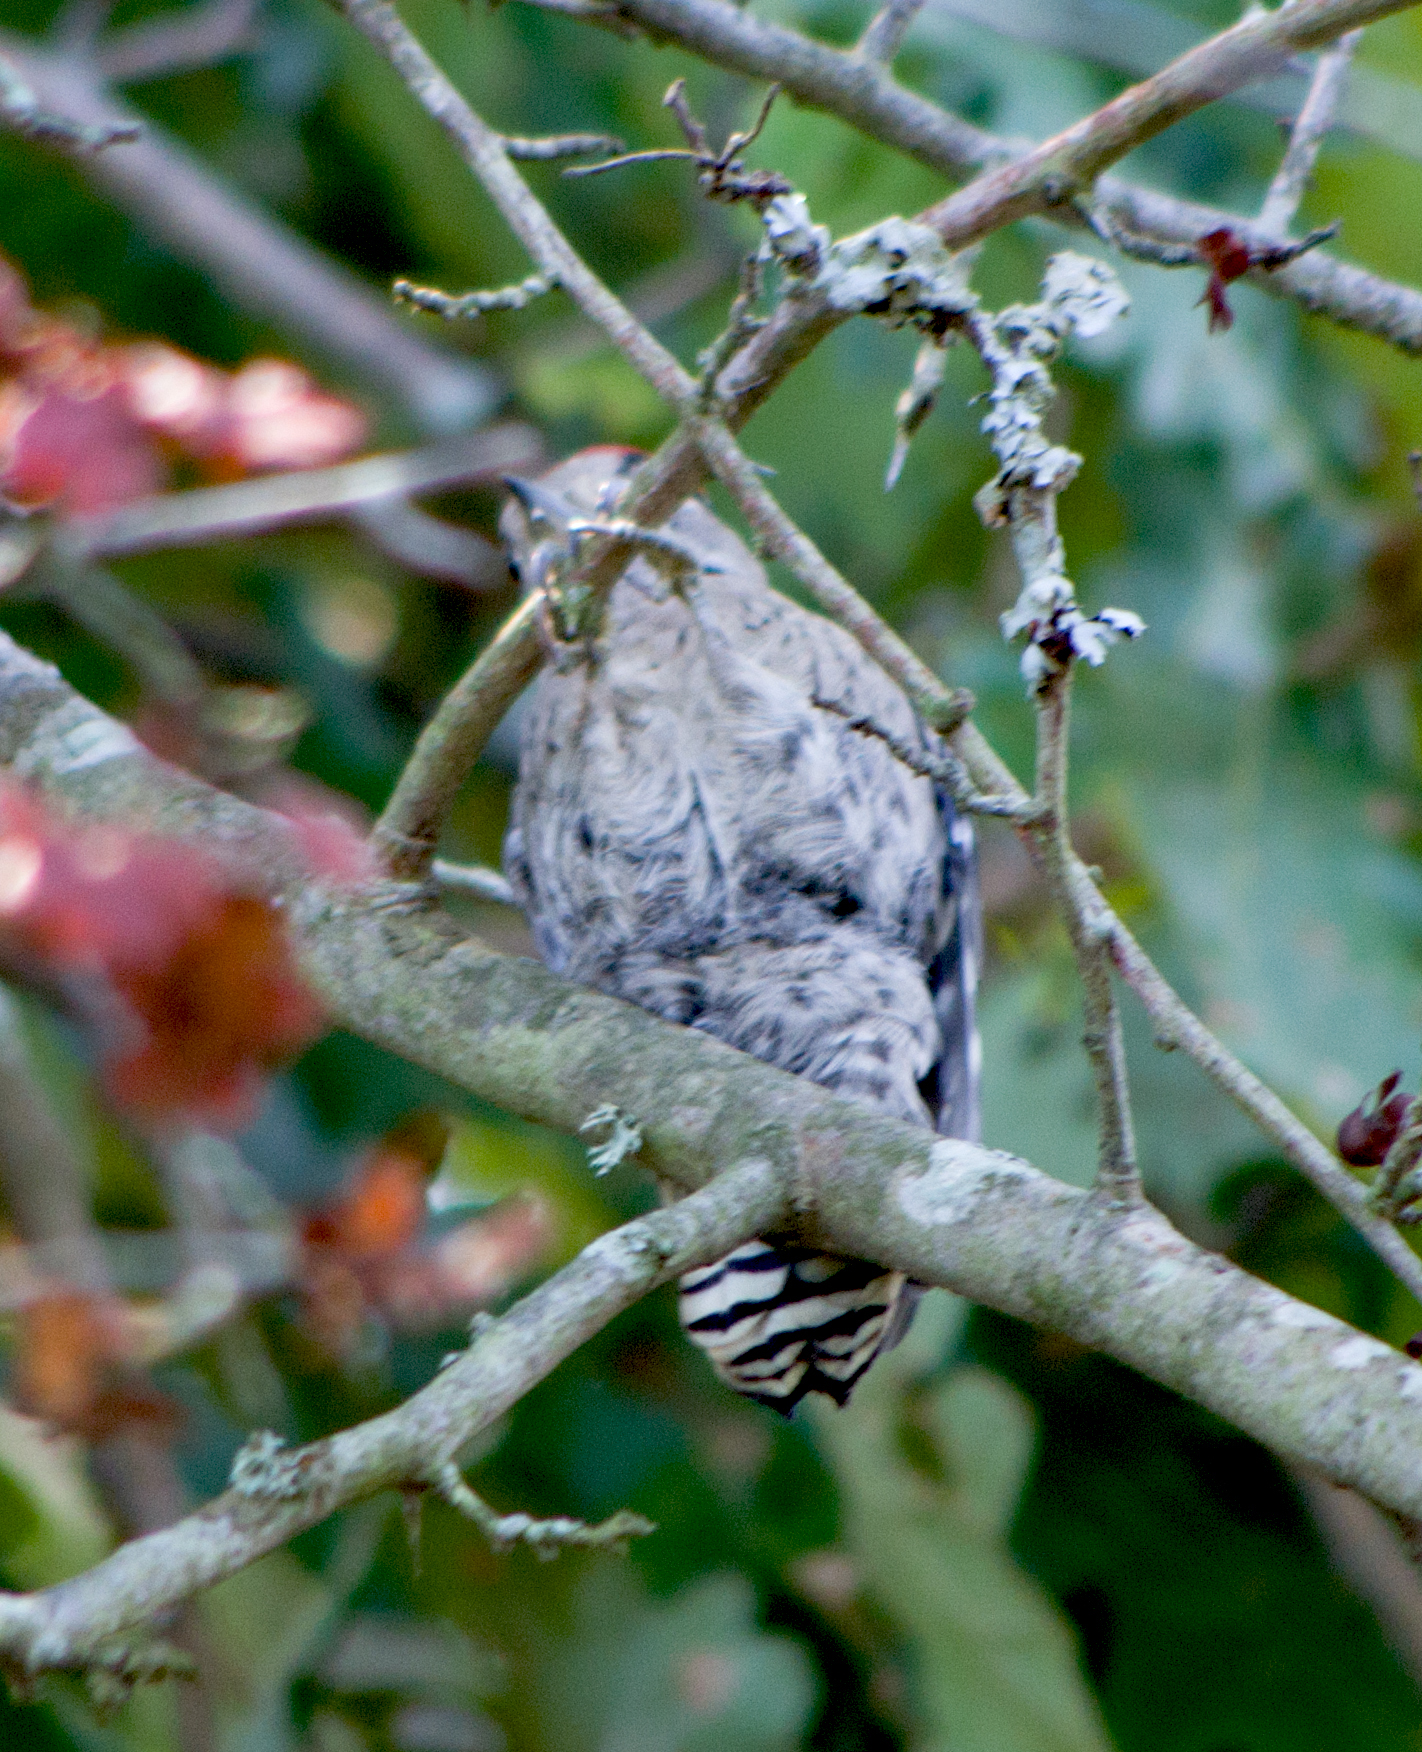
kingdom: Animalia
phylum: Chordata
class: Aves
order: Piciformes
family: Picidae
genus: Dryobates
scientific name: Dryobates minor
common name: Lesser spotted woodpecker
